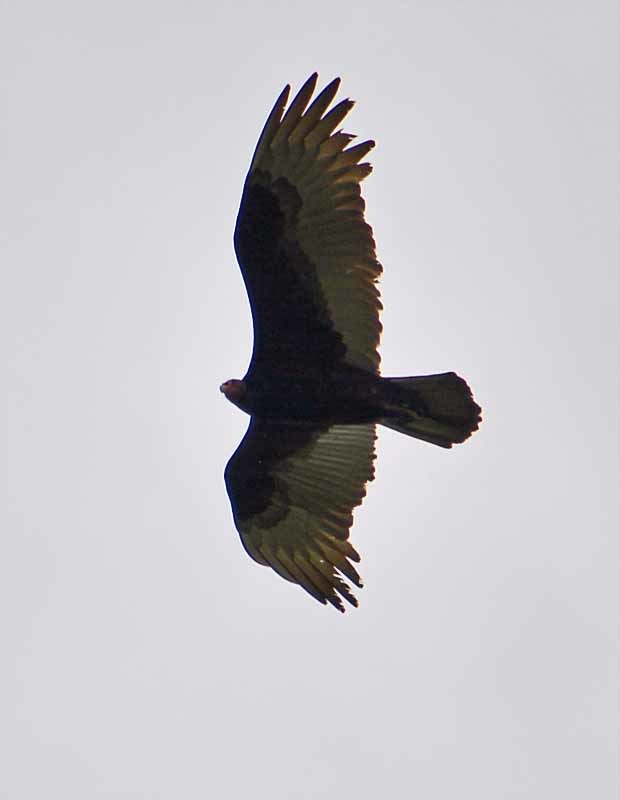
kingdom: Animalia
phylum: Chordata
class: Aves
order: Accipitriformes
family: Cathartidae
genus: Cathartes
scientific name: Cathartes aura
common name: Turkey vulture
